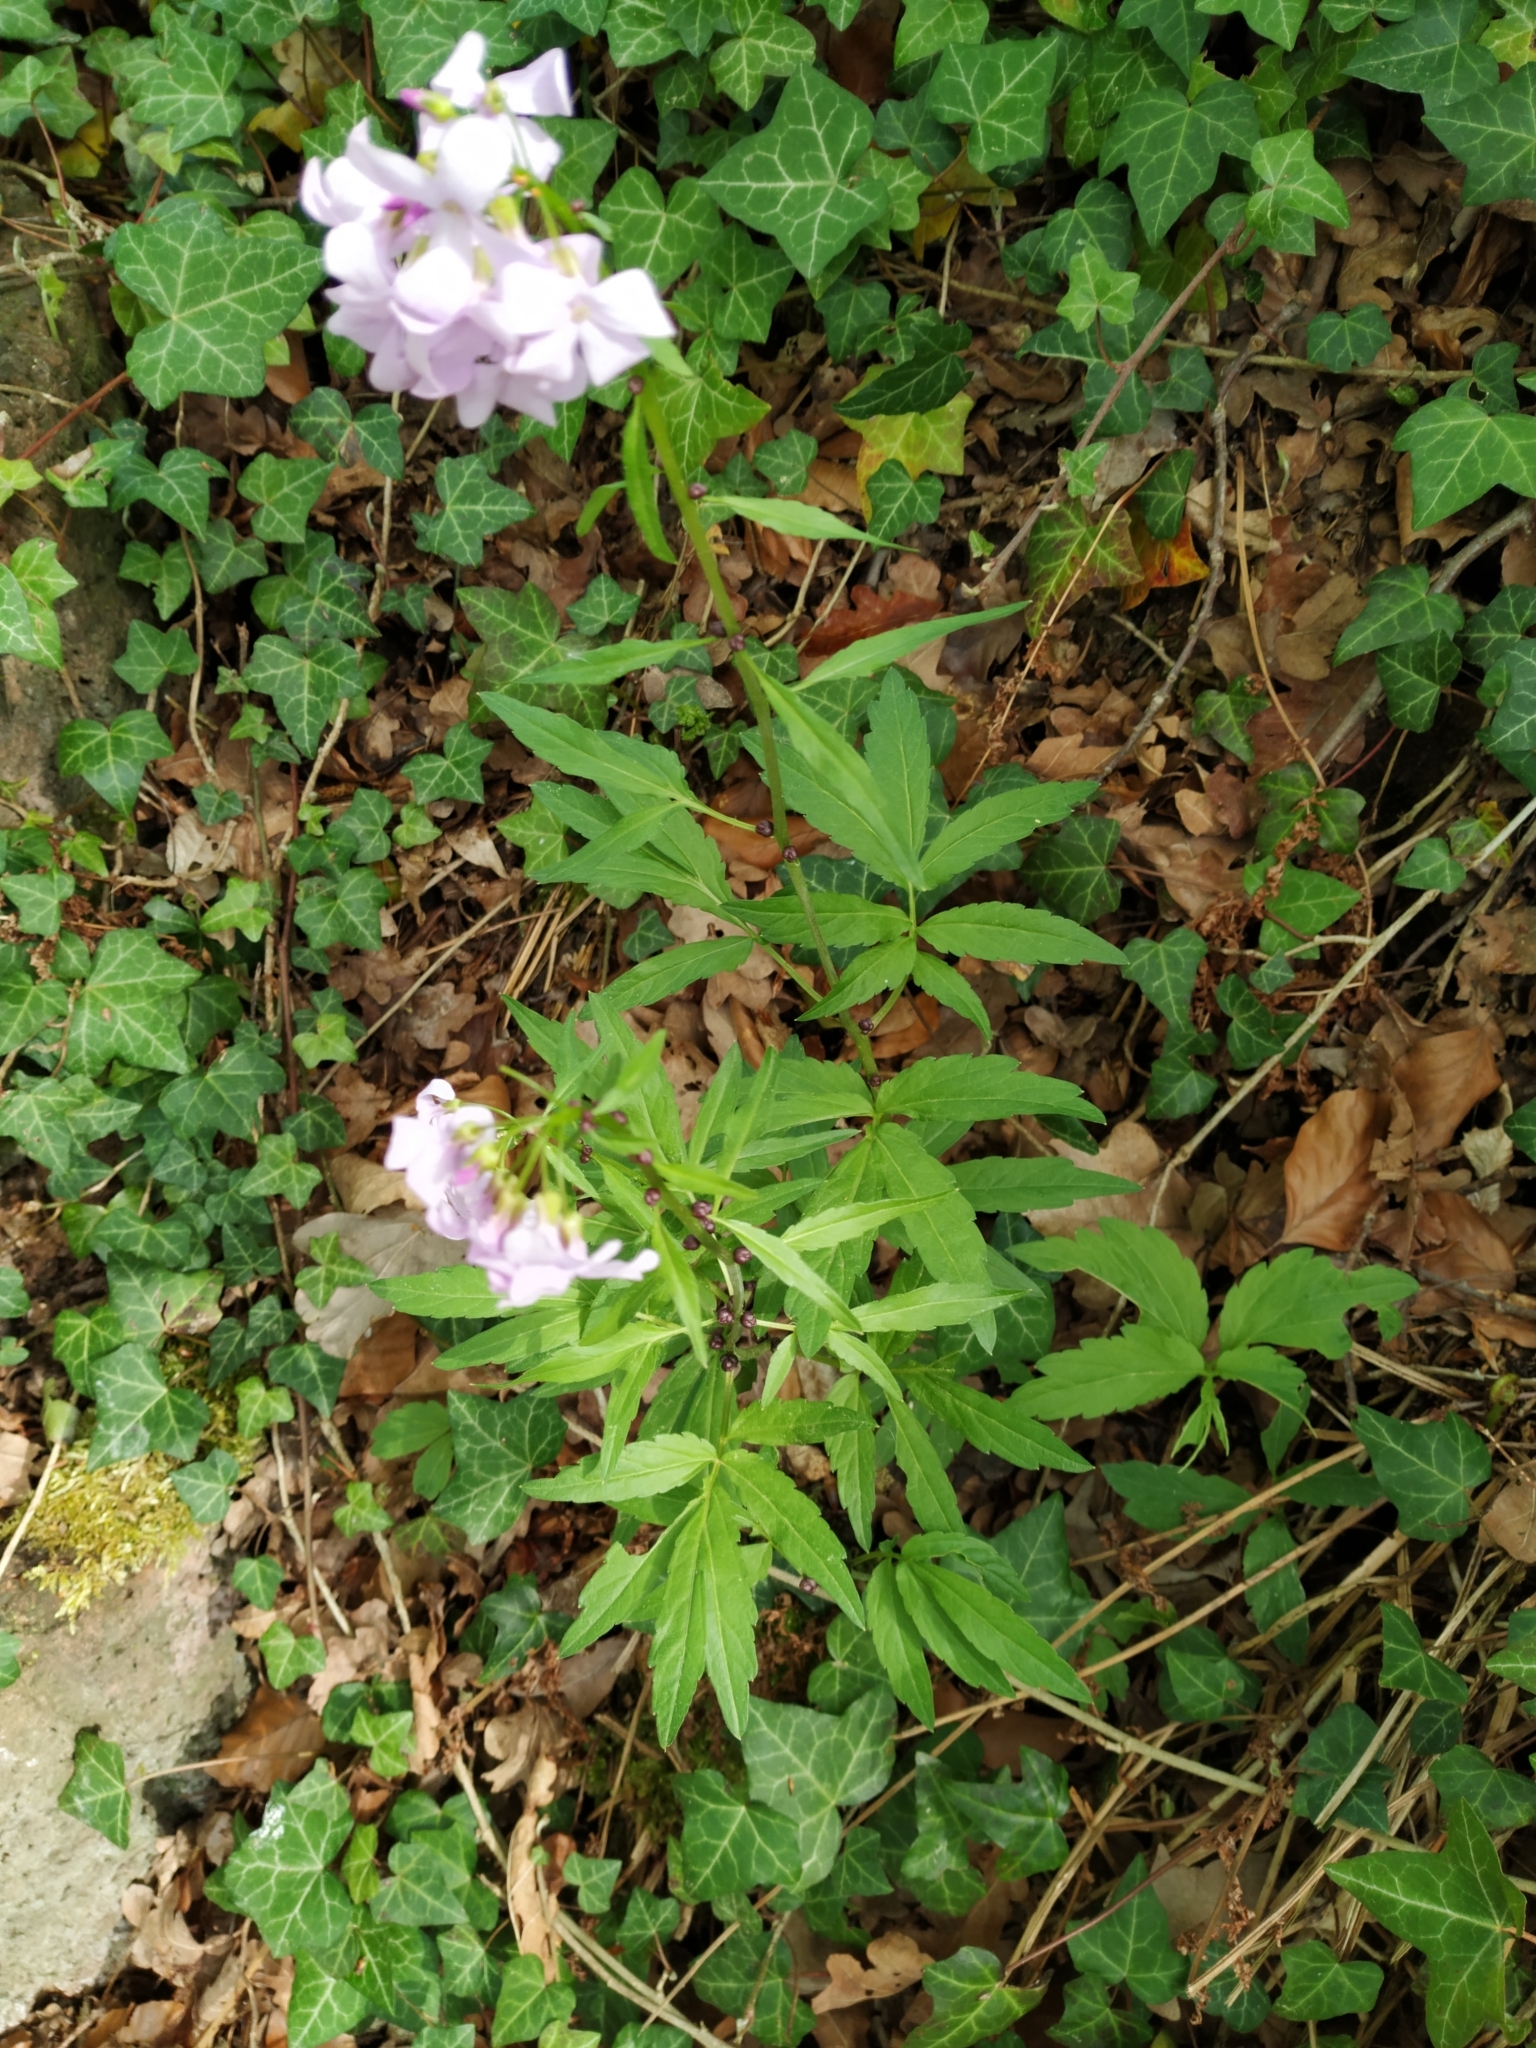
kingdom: Plantae
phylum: Tracheophyta
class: Magnoliopsida
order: Brassicales
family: Brassicaceae
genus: Cardamine
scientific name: Cardamine bulbifera
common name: Coralroot bittercress
